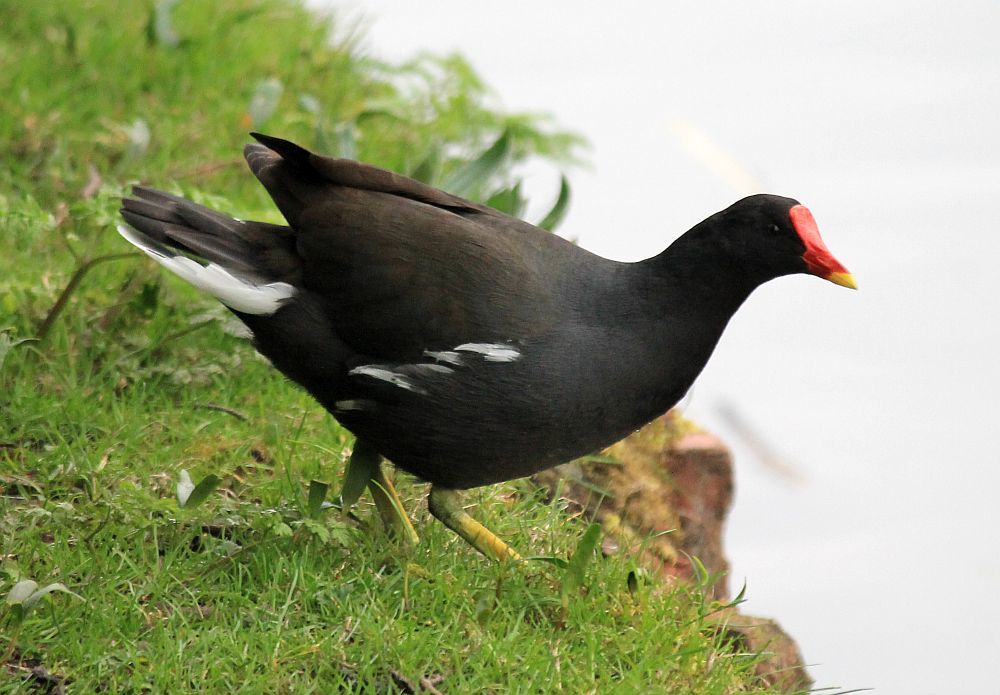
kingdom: Animalia
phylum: Chordata
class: Aves
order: Gruiformes
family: Rallidae
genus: Gallinula
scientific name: Gallinula chloropus
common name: Common moorhen
